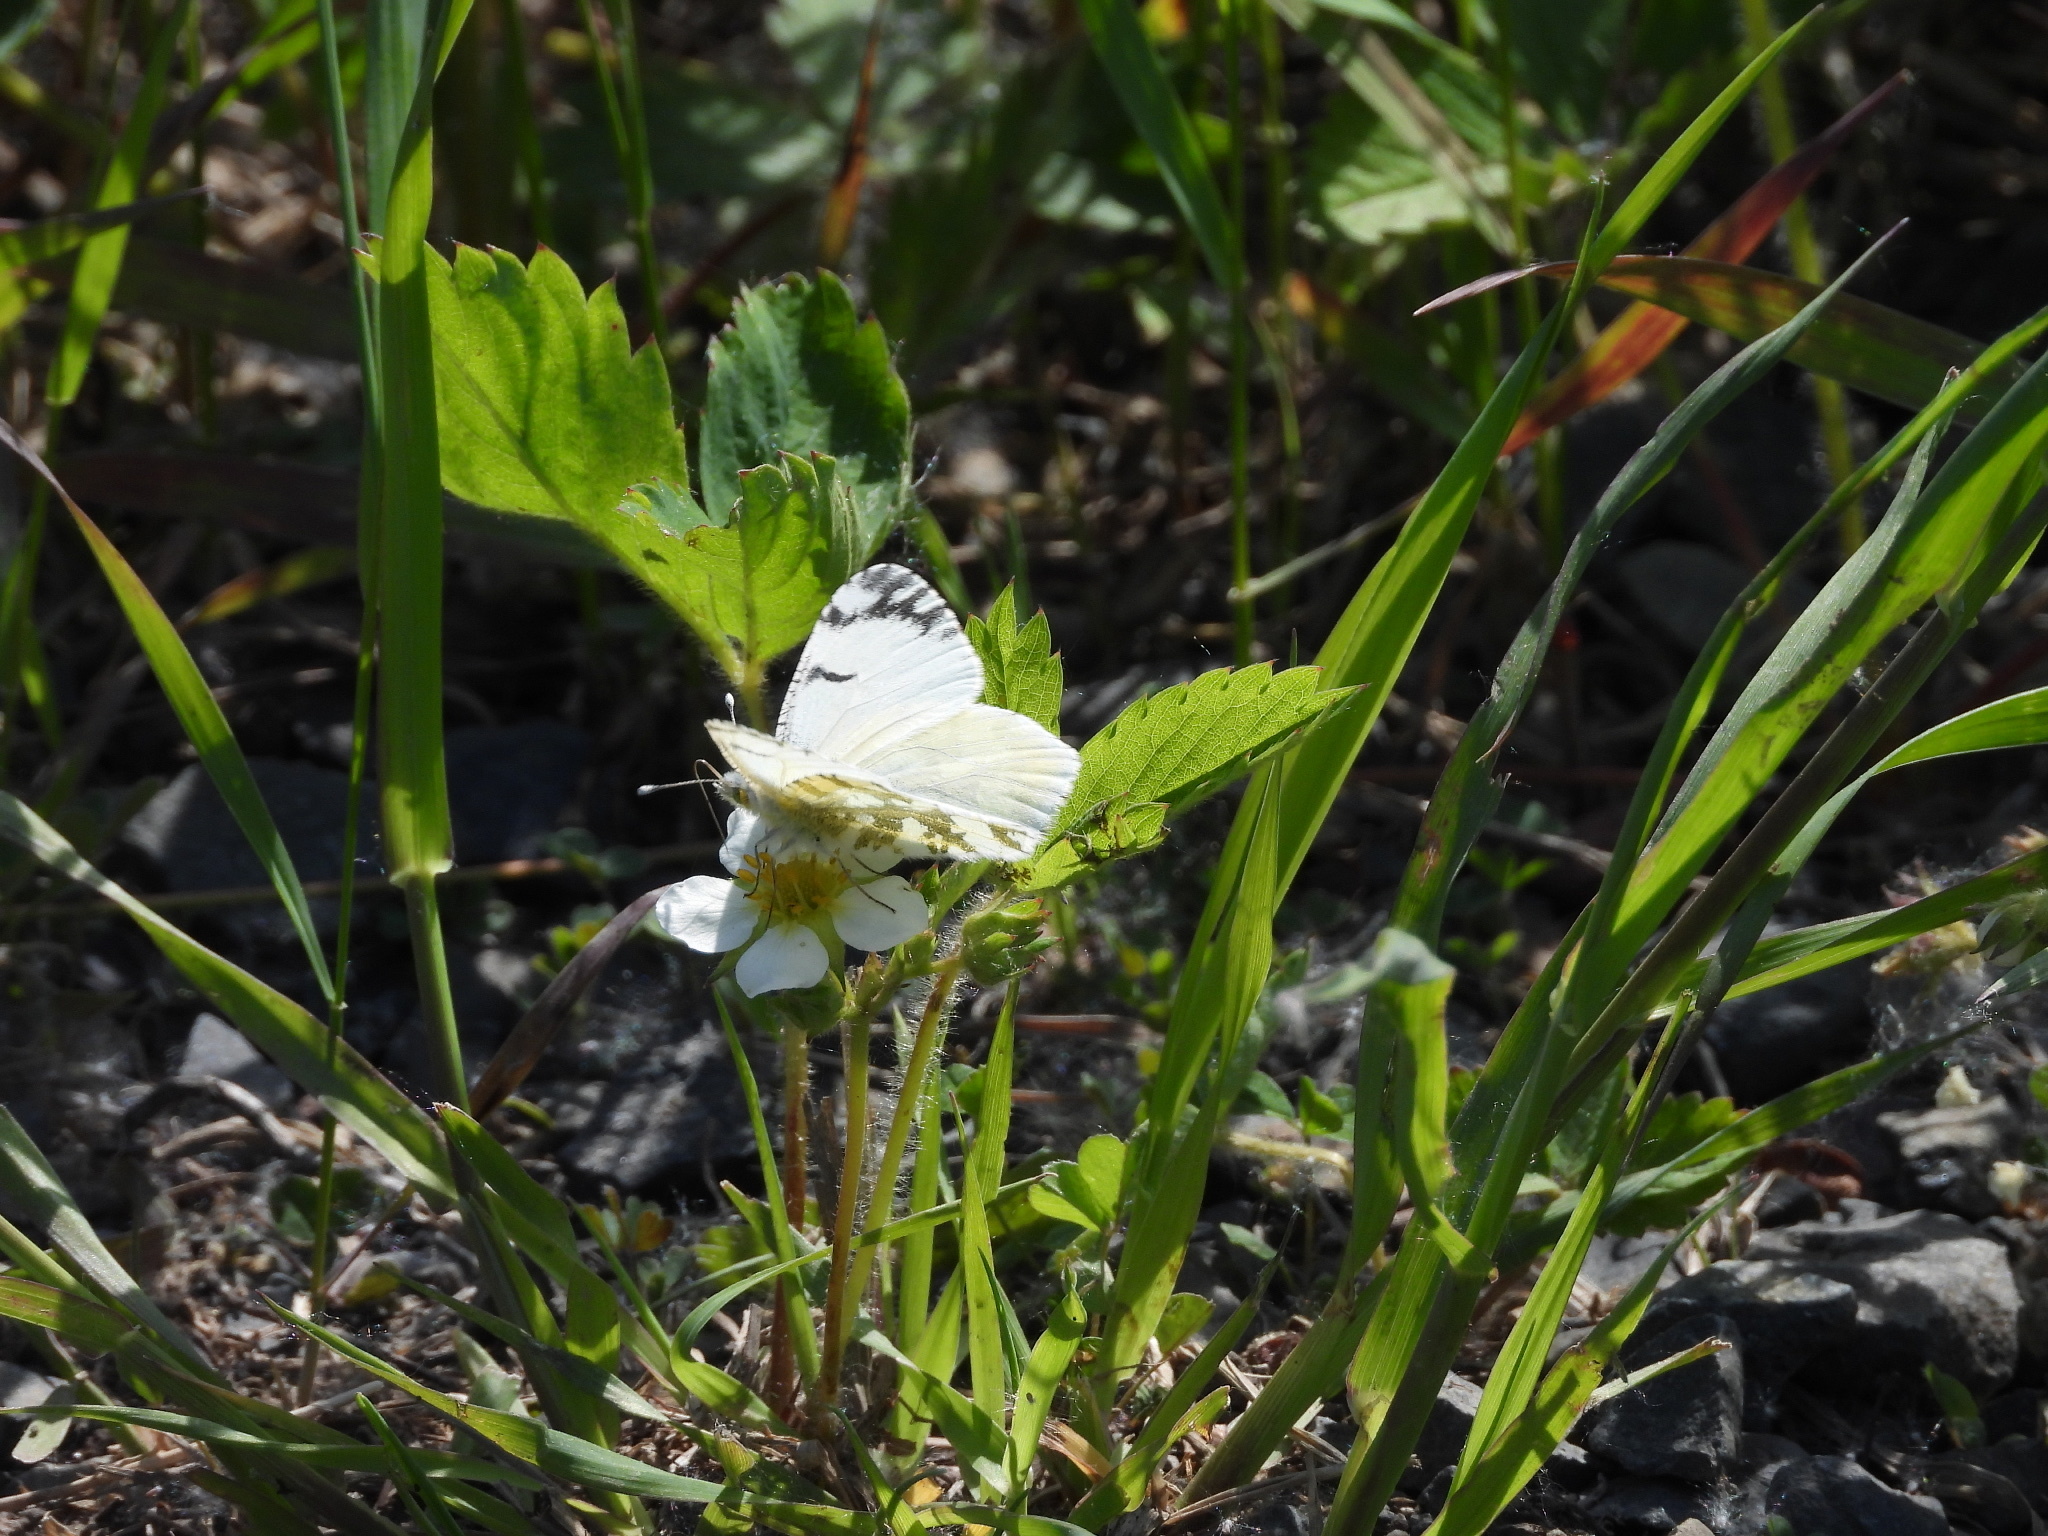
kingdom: Animalia
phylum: Arthropoda
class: Insecta
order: Lepidoptera
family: Pieridae
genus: Euchloe
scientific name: Euchloe ausonides
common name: Creamy marblewing
